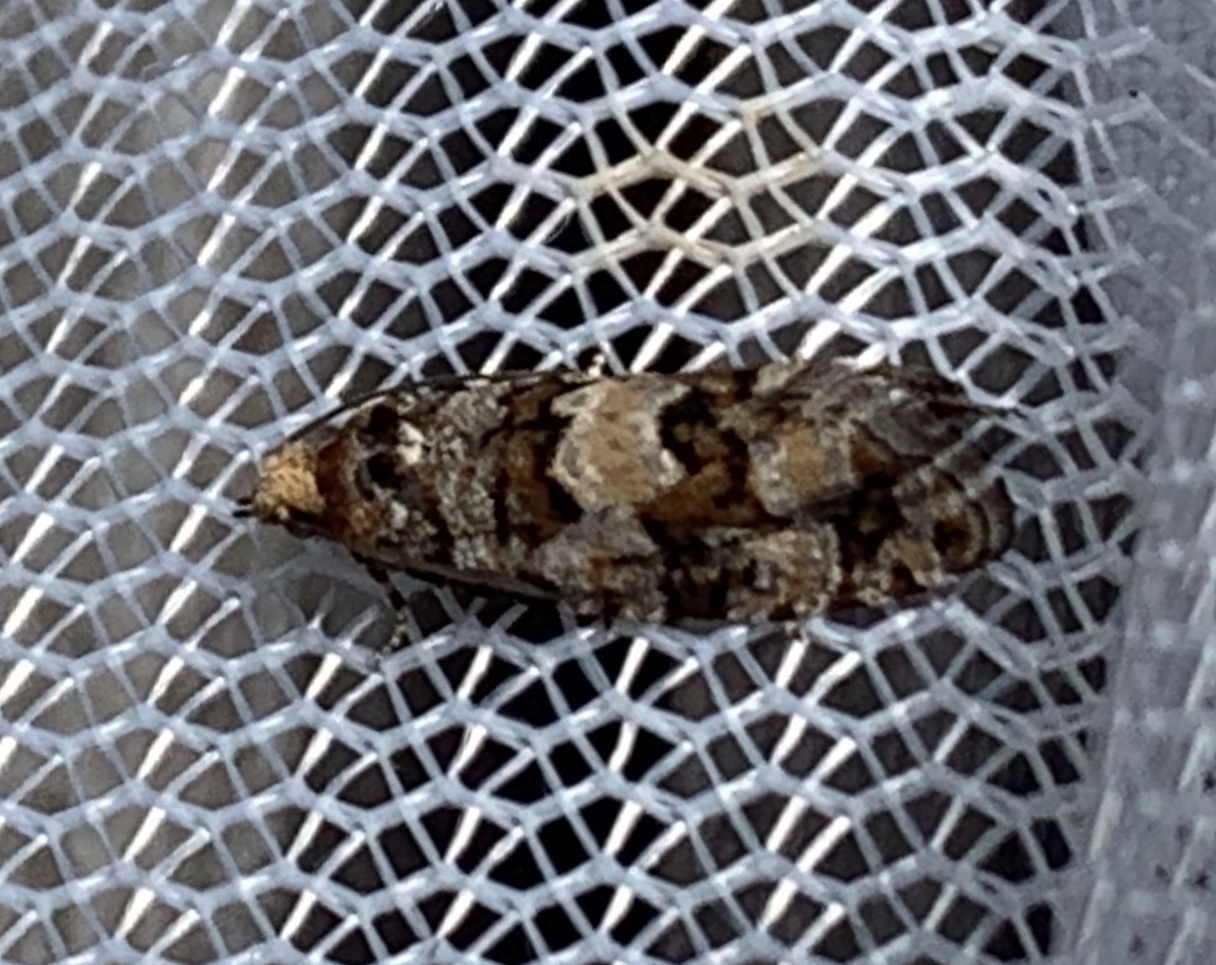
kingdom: Animalia
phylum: Arthropoda
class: Insecta
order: Lepidoptera
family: Tortricidae
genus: Eucopina
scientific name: Eucopina tocullionana
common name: White pinecone borer moth
